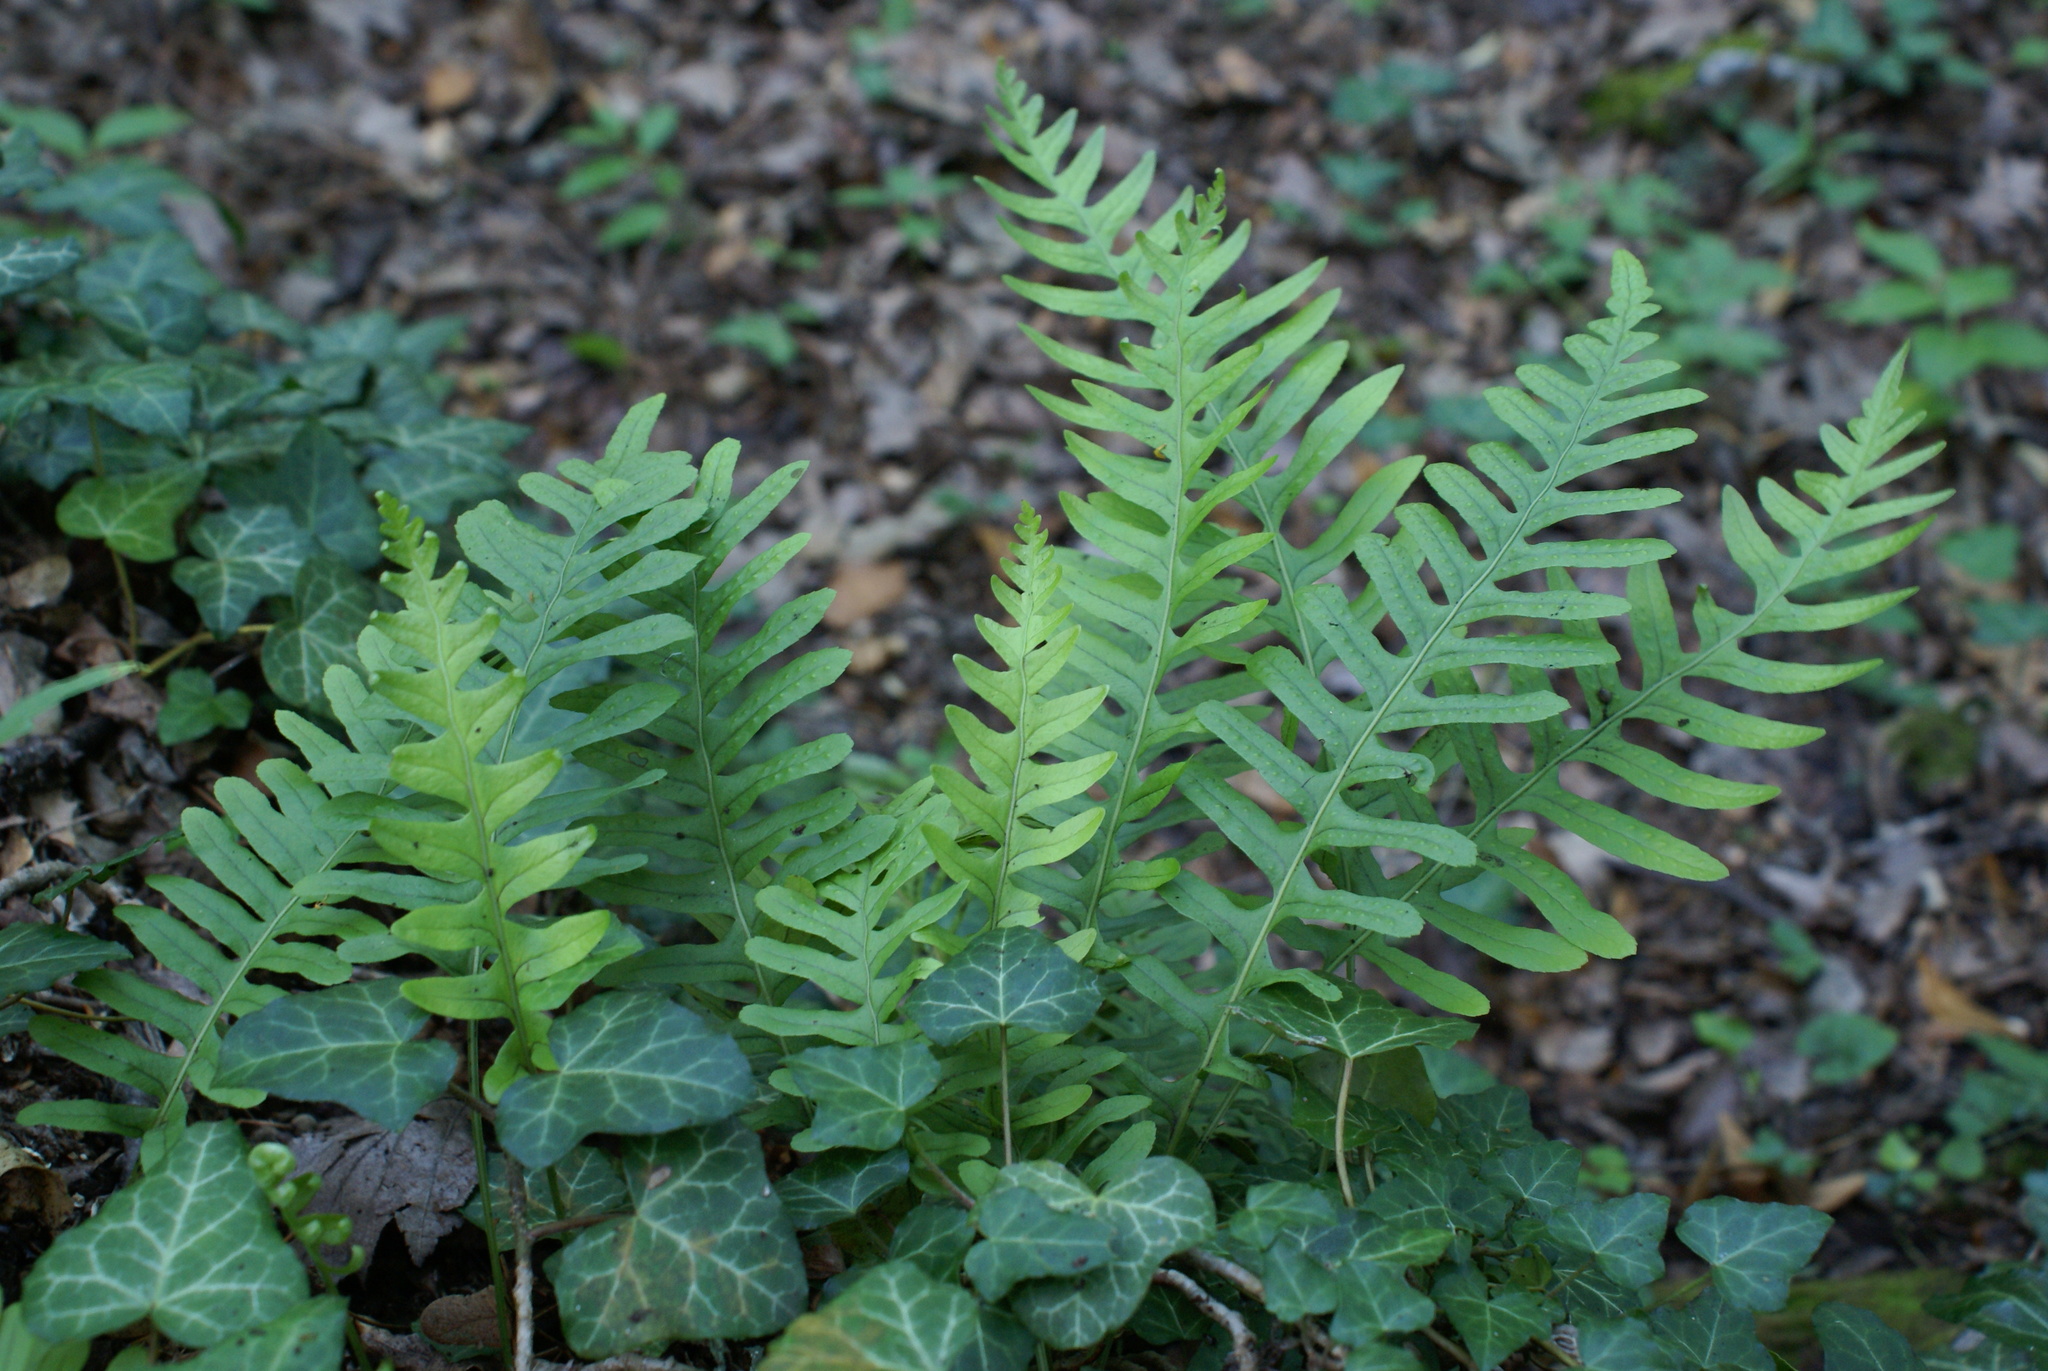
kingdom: Plantae
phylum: Tracheophyta
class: Polypodiopsida
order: Polypodiales
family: Polypodiaceae
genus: Polypodium
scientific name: Polypodium vulgare
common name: Common polypody
